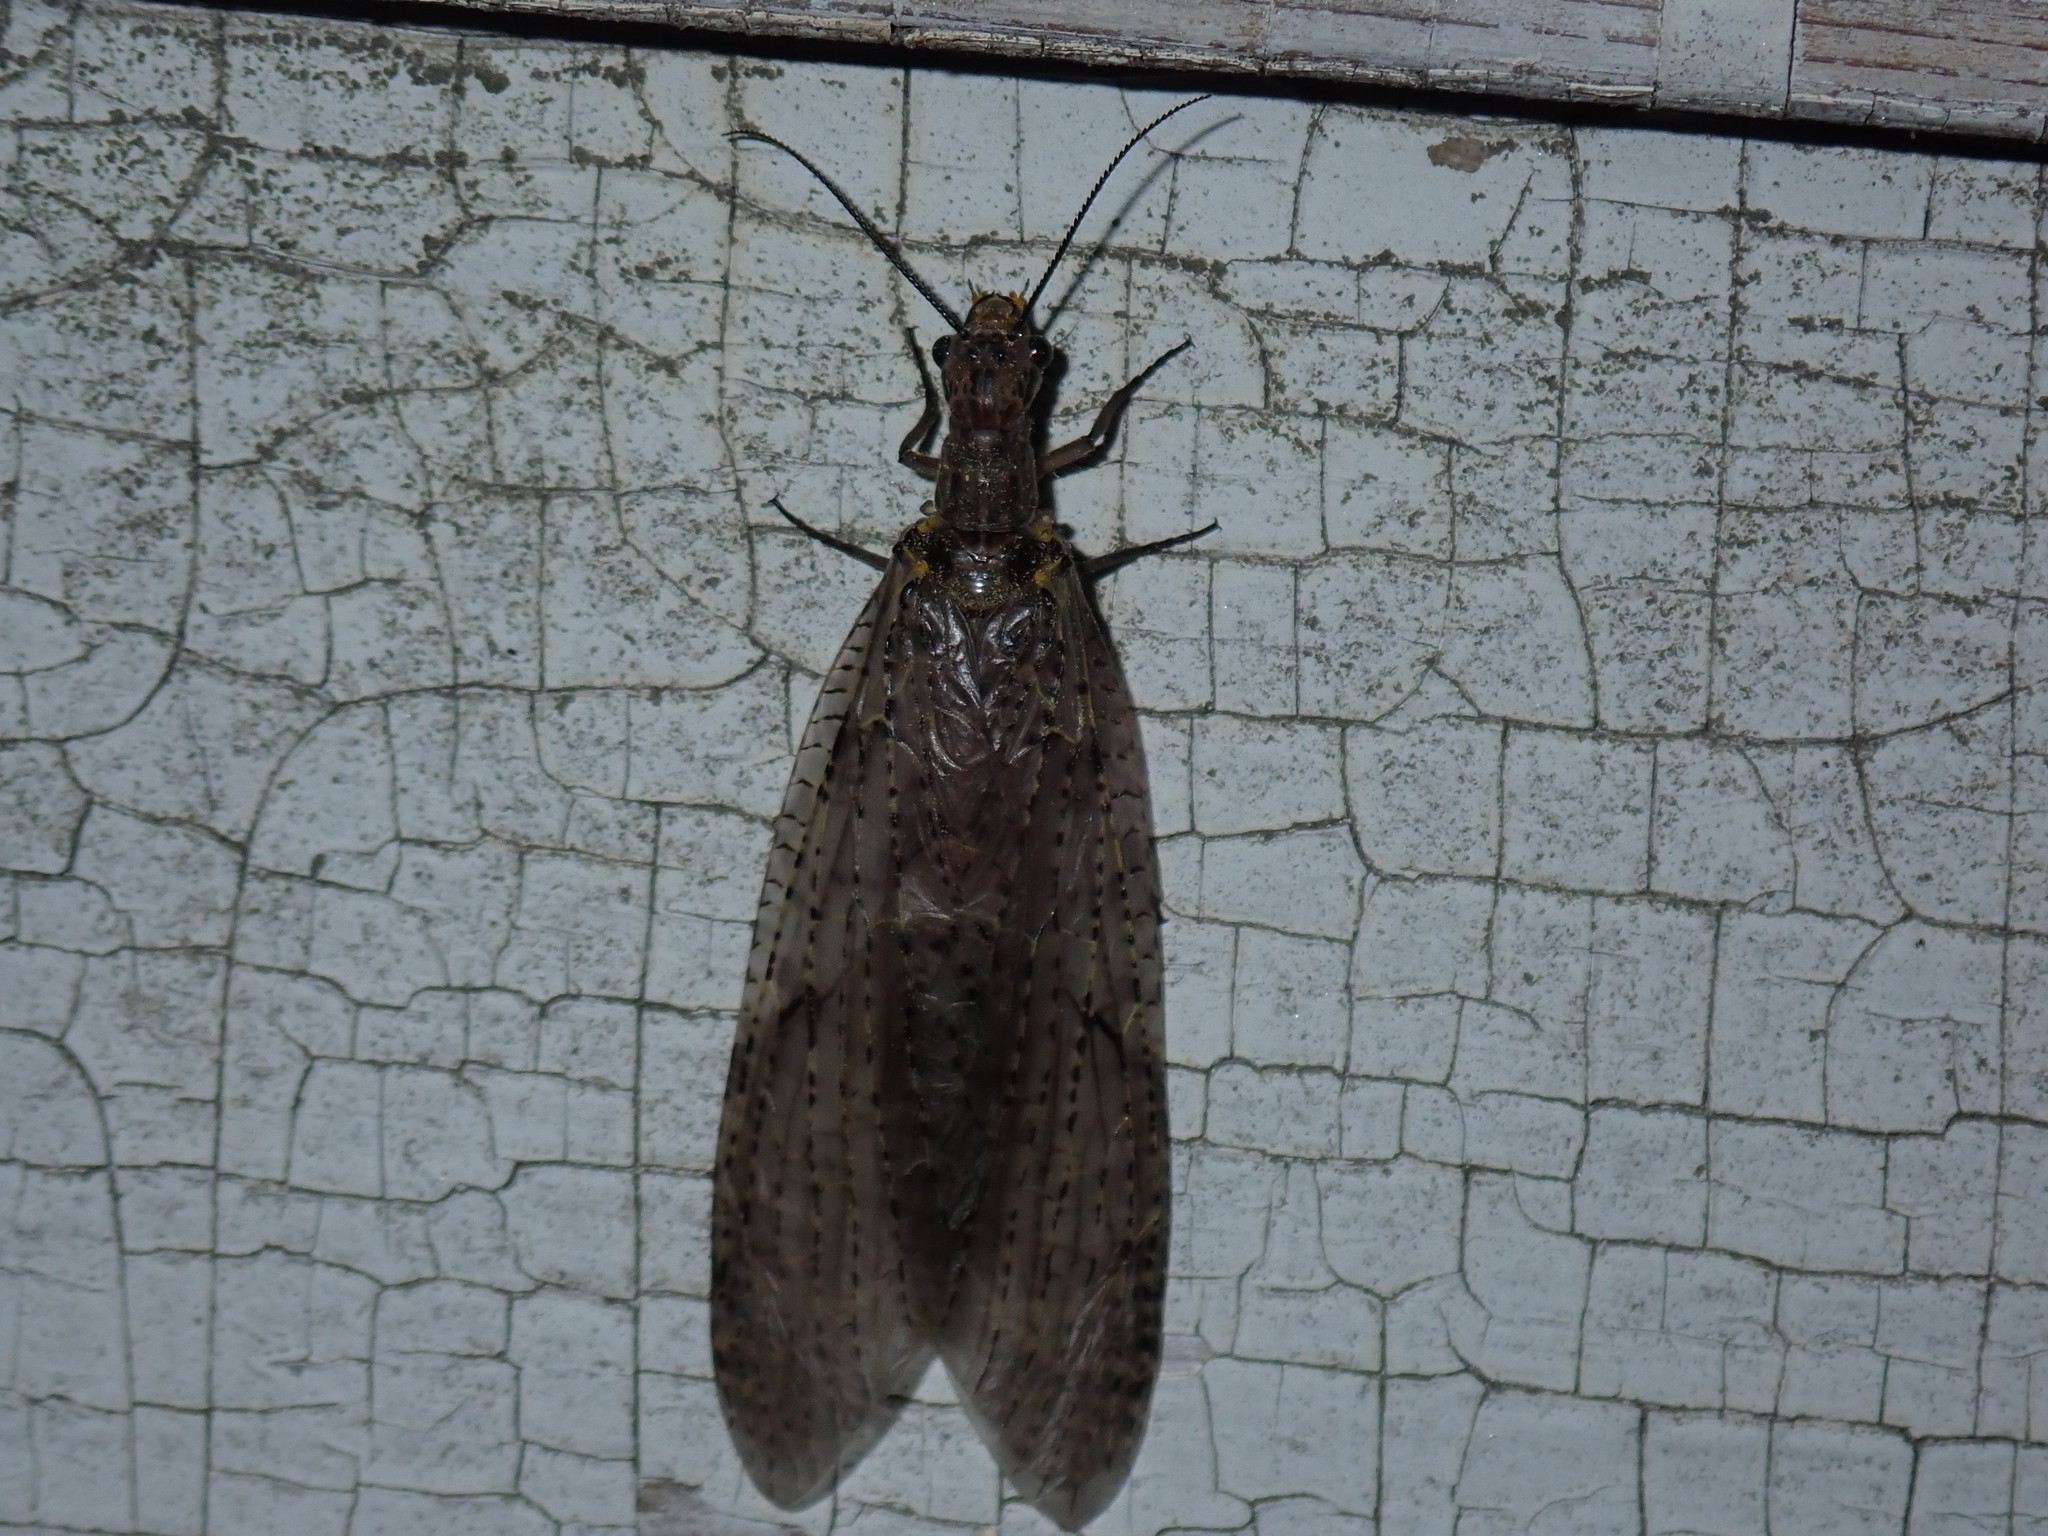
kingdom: Animalia
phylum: Arthropoda
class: Insecta
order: Megaloptera
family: Corydalidae
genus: Chauliodes
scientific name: Chauliodes rastricornis
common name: Spring fishfly
